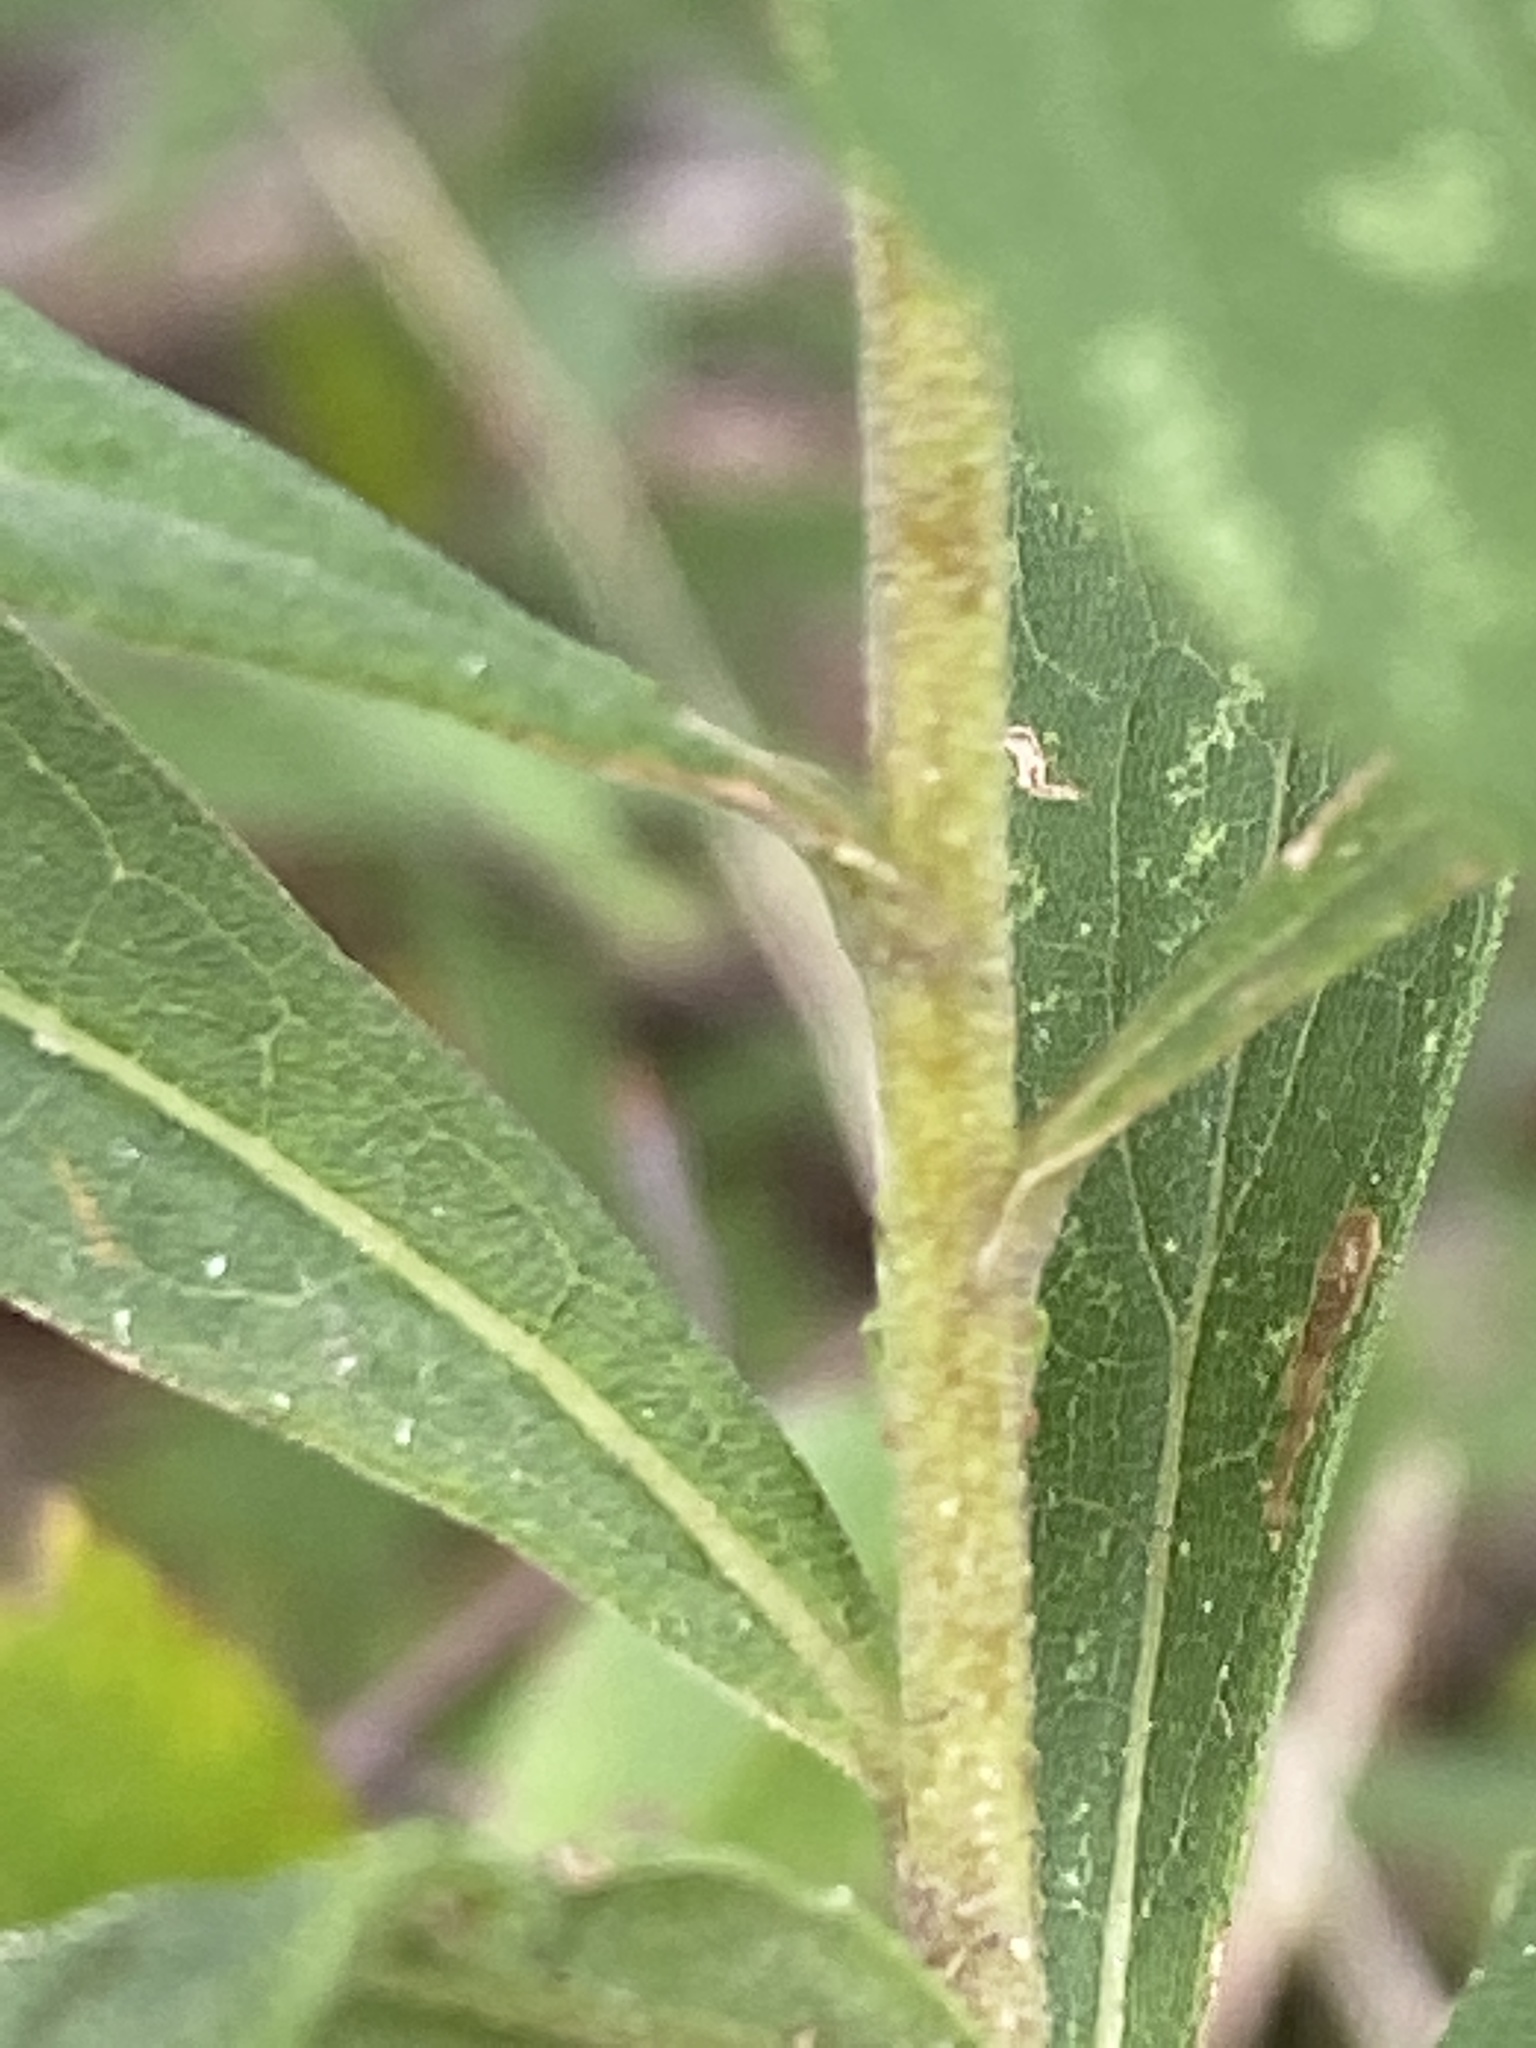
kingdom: Plantae
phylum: Tracheophyta
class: Magnoliopsida
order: Asterales
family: Asteraceae
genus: Solidago
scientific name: Solidago altissima
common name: Late goldenrod
